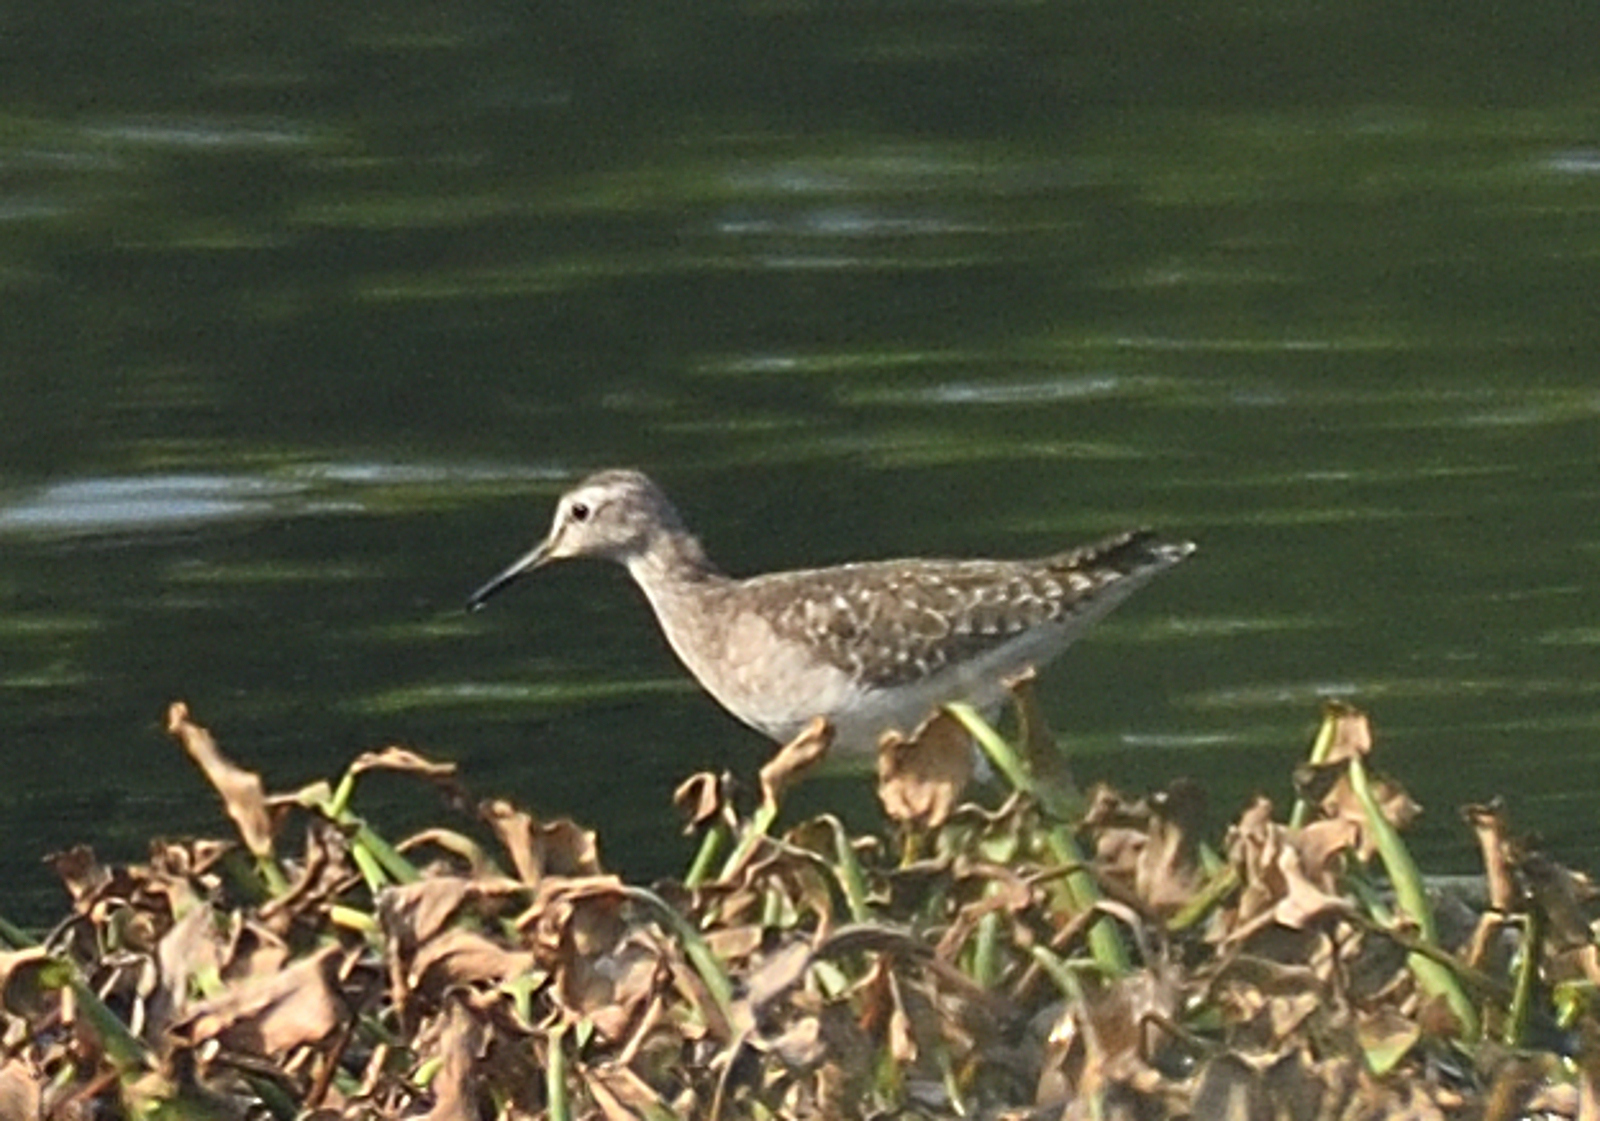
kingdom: Animalia
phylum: Chordata
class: Aves
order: Charadriiformes
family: Scolopacidae
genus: Tringa
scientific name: Tringa glareola
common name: Wood sandpiper
